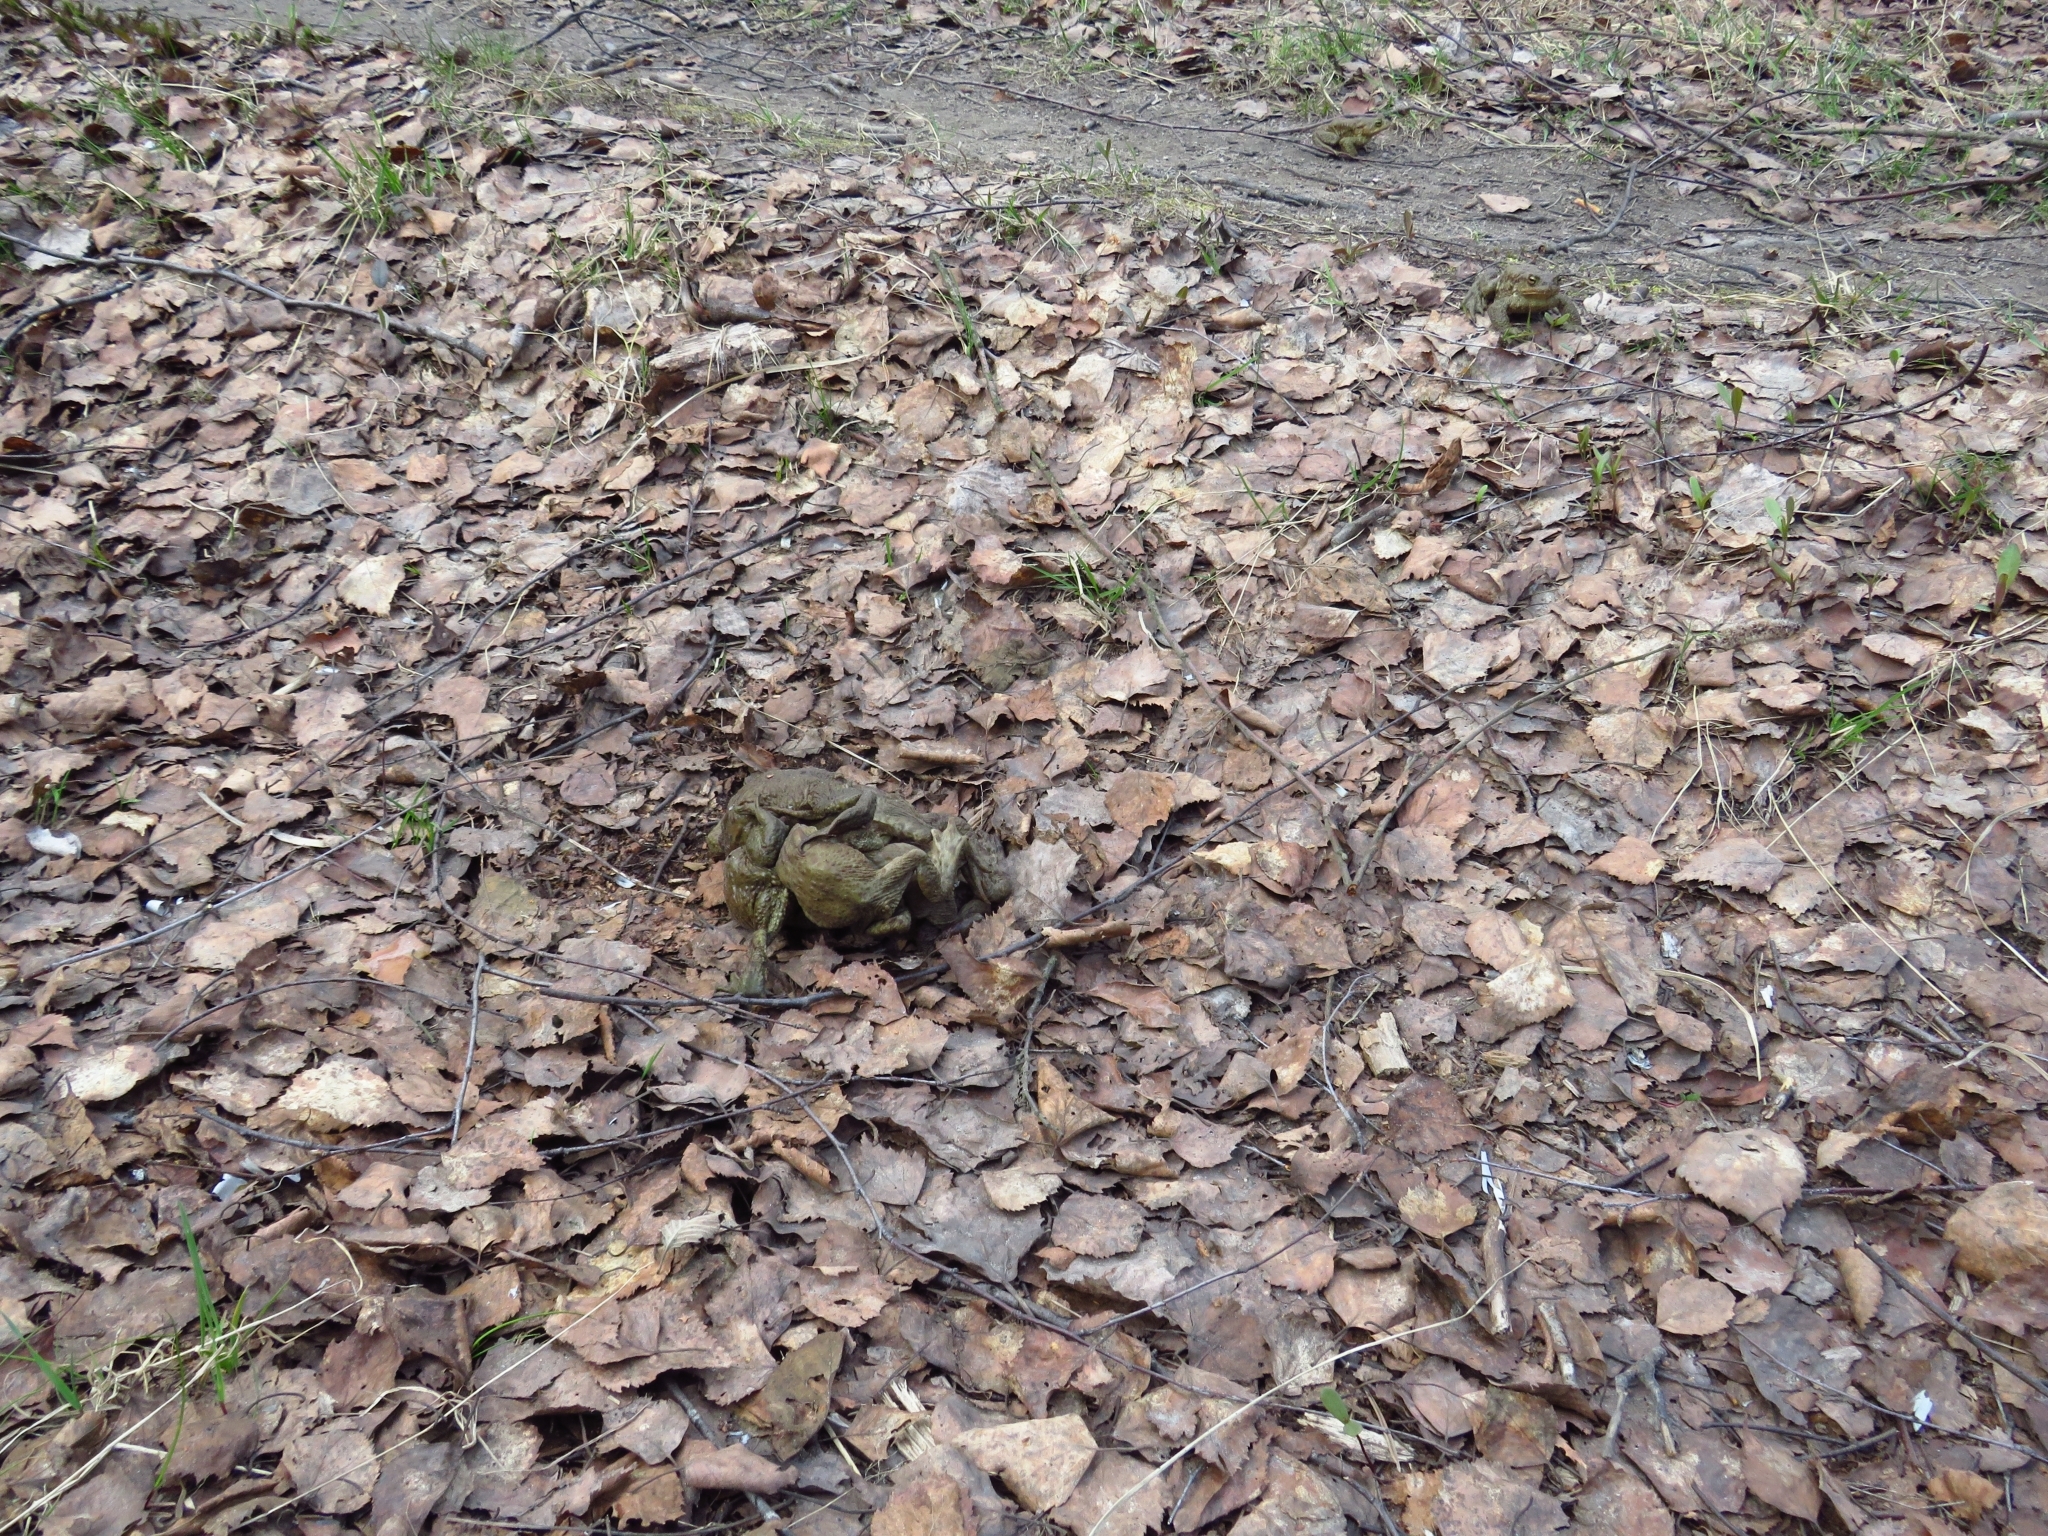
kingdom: Animalia
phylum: Chordata
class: Amphibia
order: Anura
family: Bufonidae
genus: Bufo
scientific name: Bufo bufo
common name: Common toad
